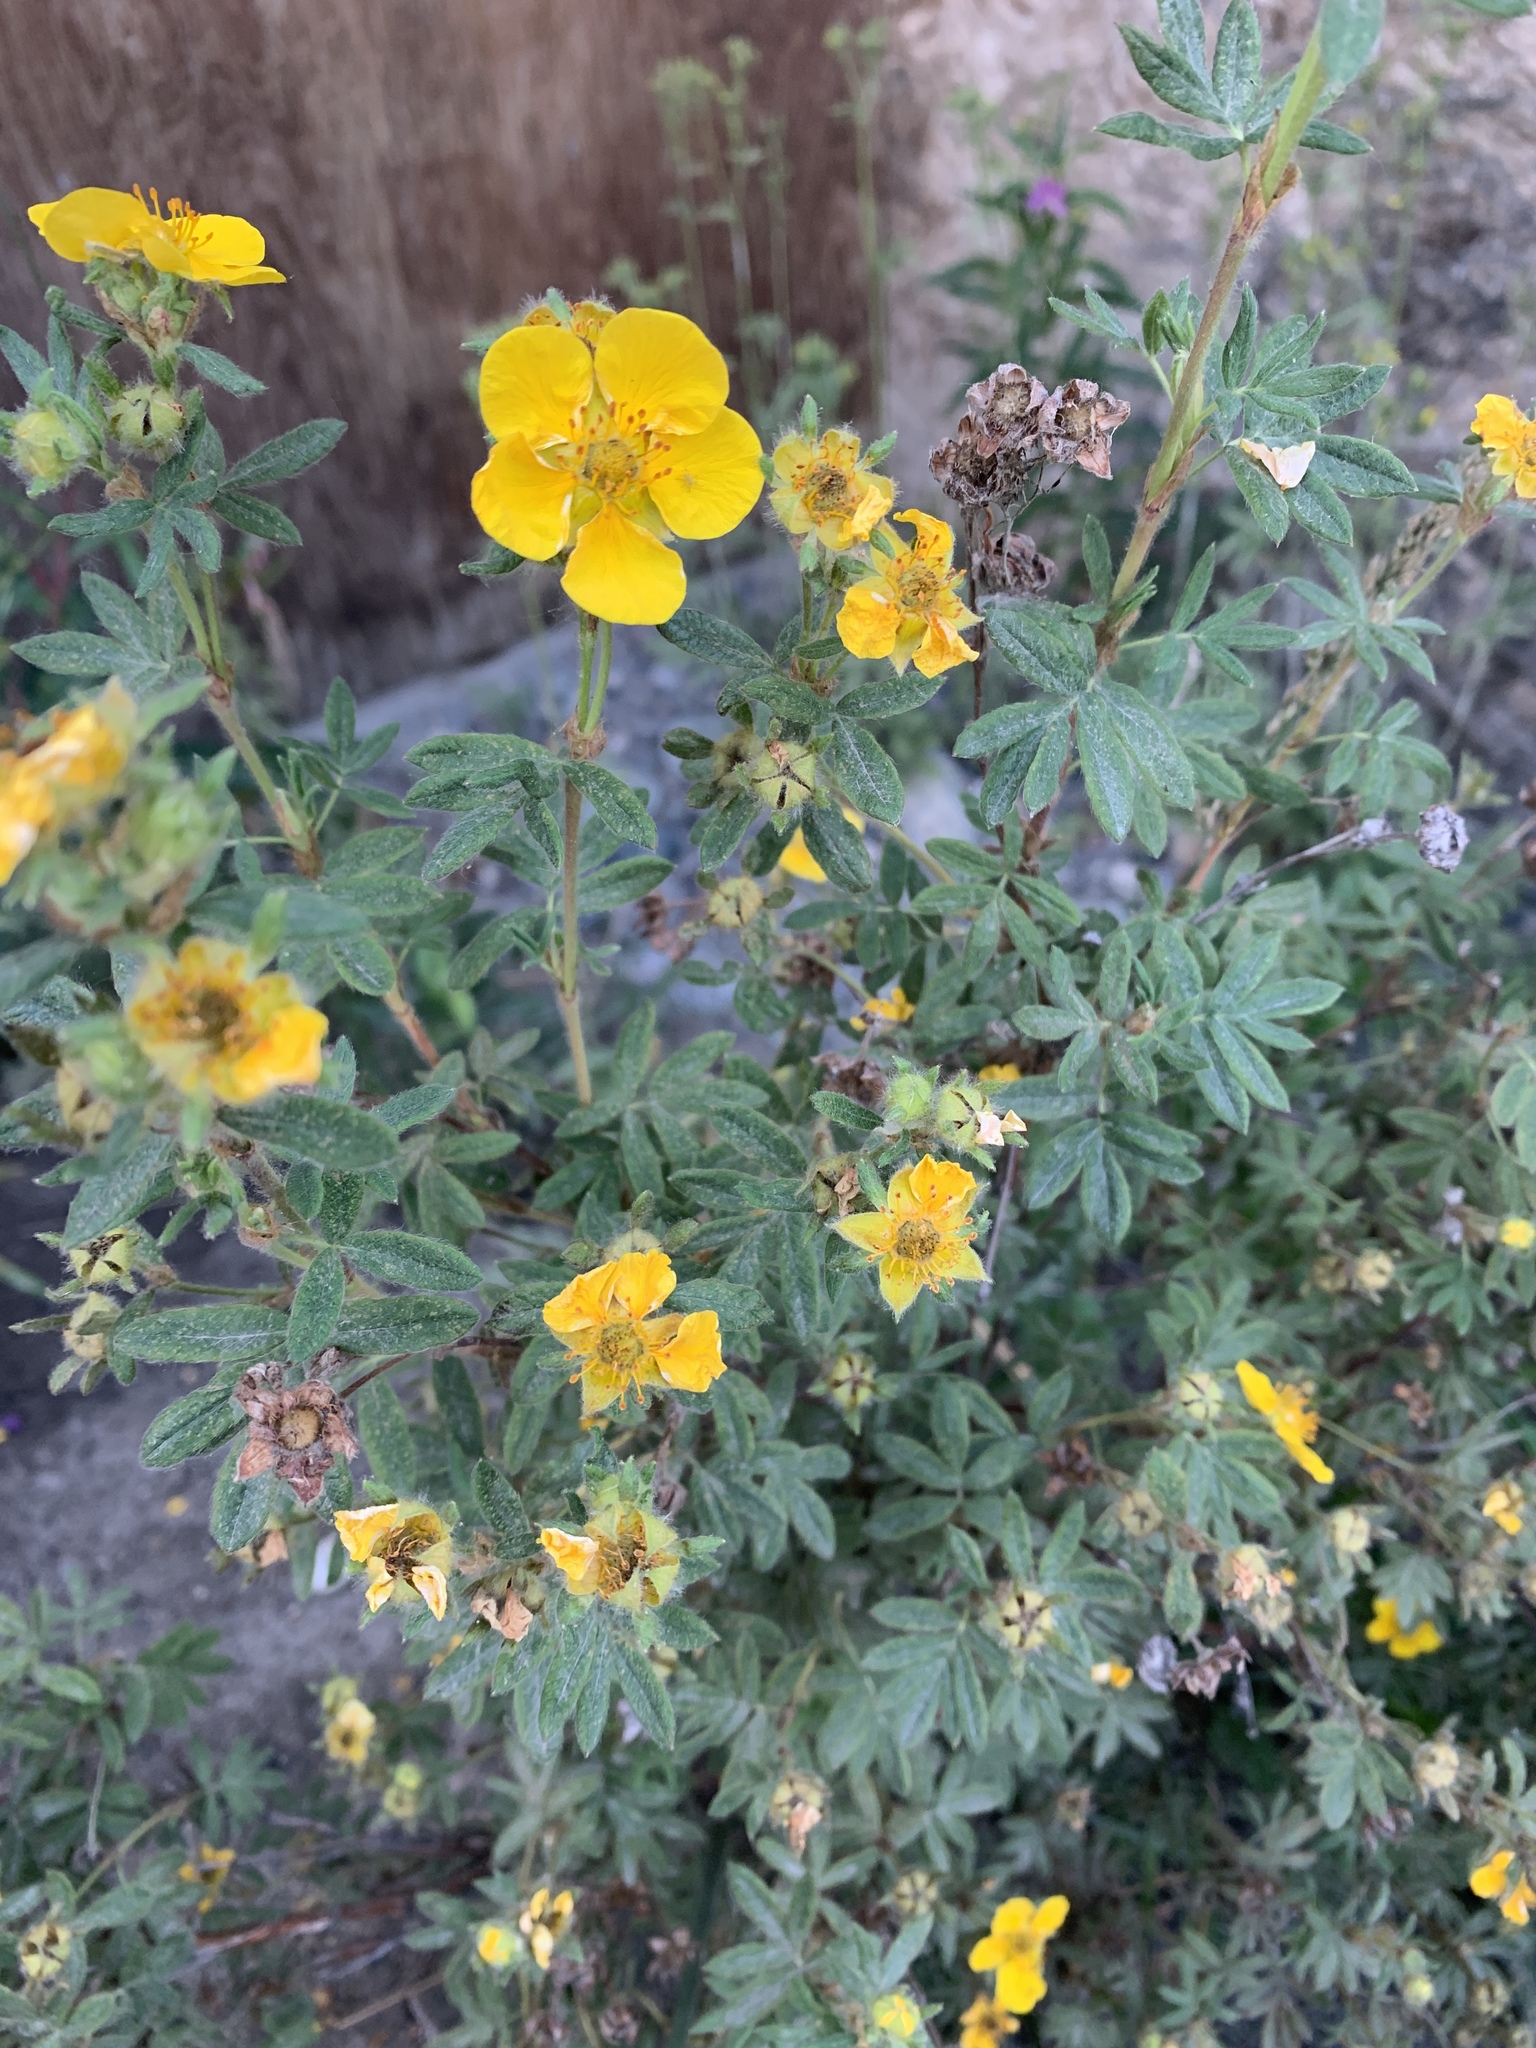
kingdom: Plantae
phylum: Tracheophyta
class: Magnoliopsida
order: Rosales
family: Rosaceae
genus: Dasiphora
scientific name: Dasiphora fruticosa
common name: Shrubby cinquefoil
